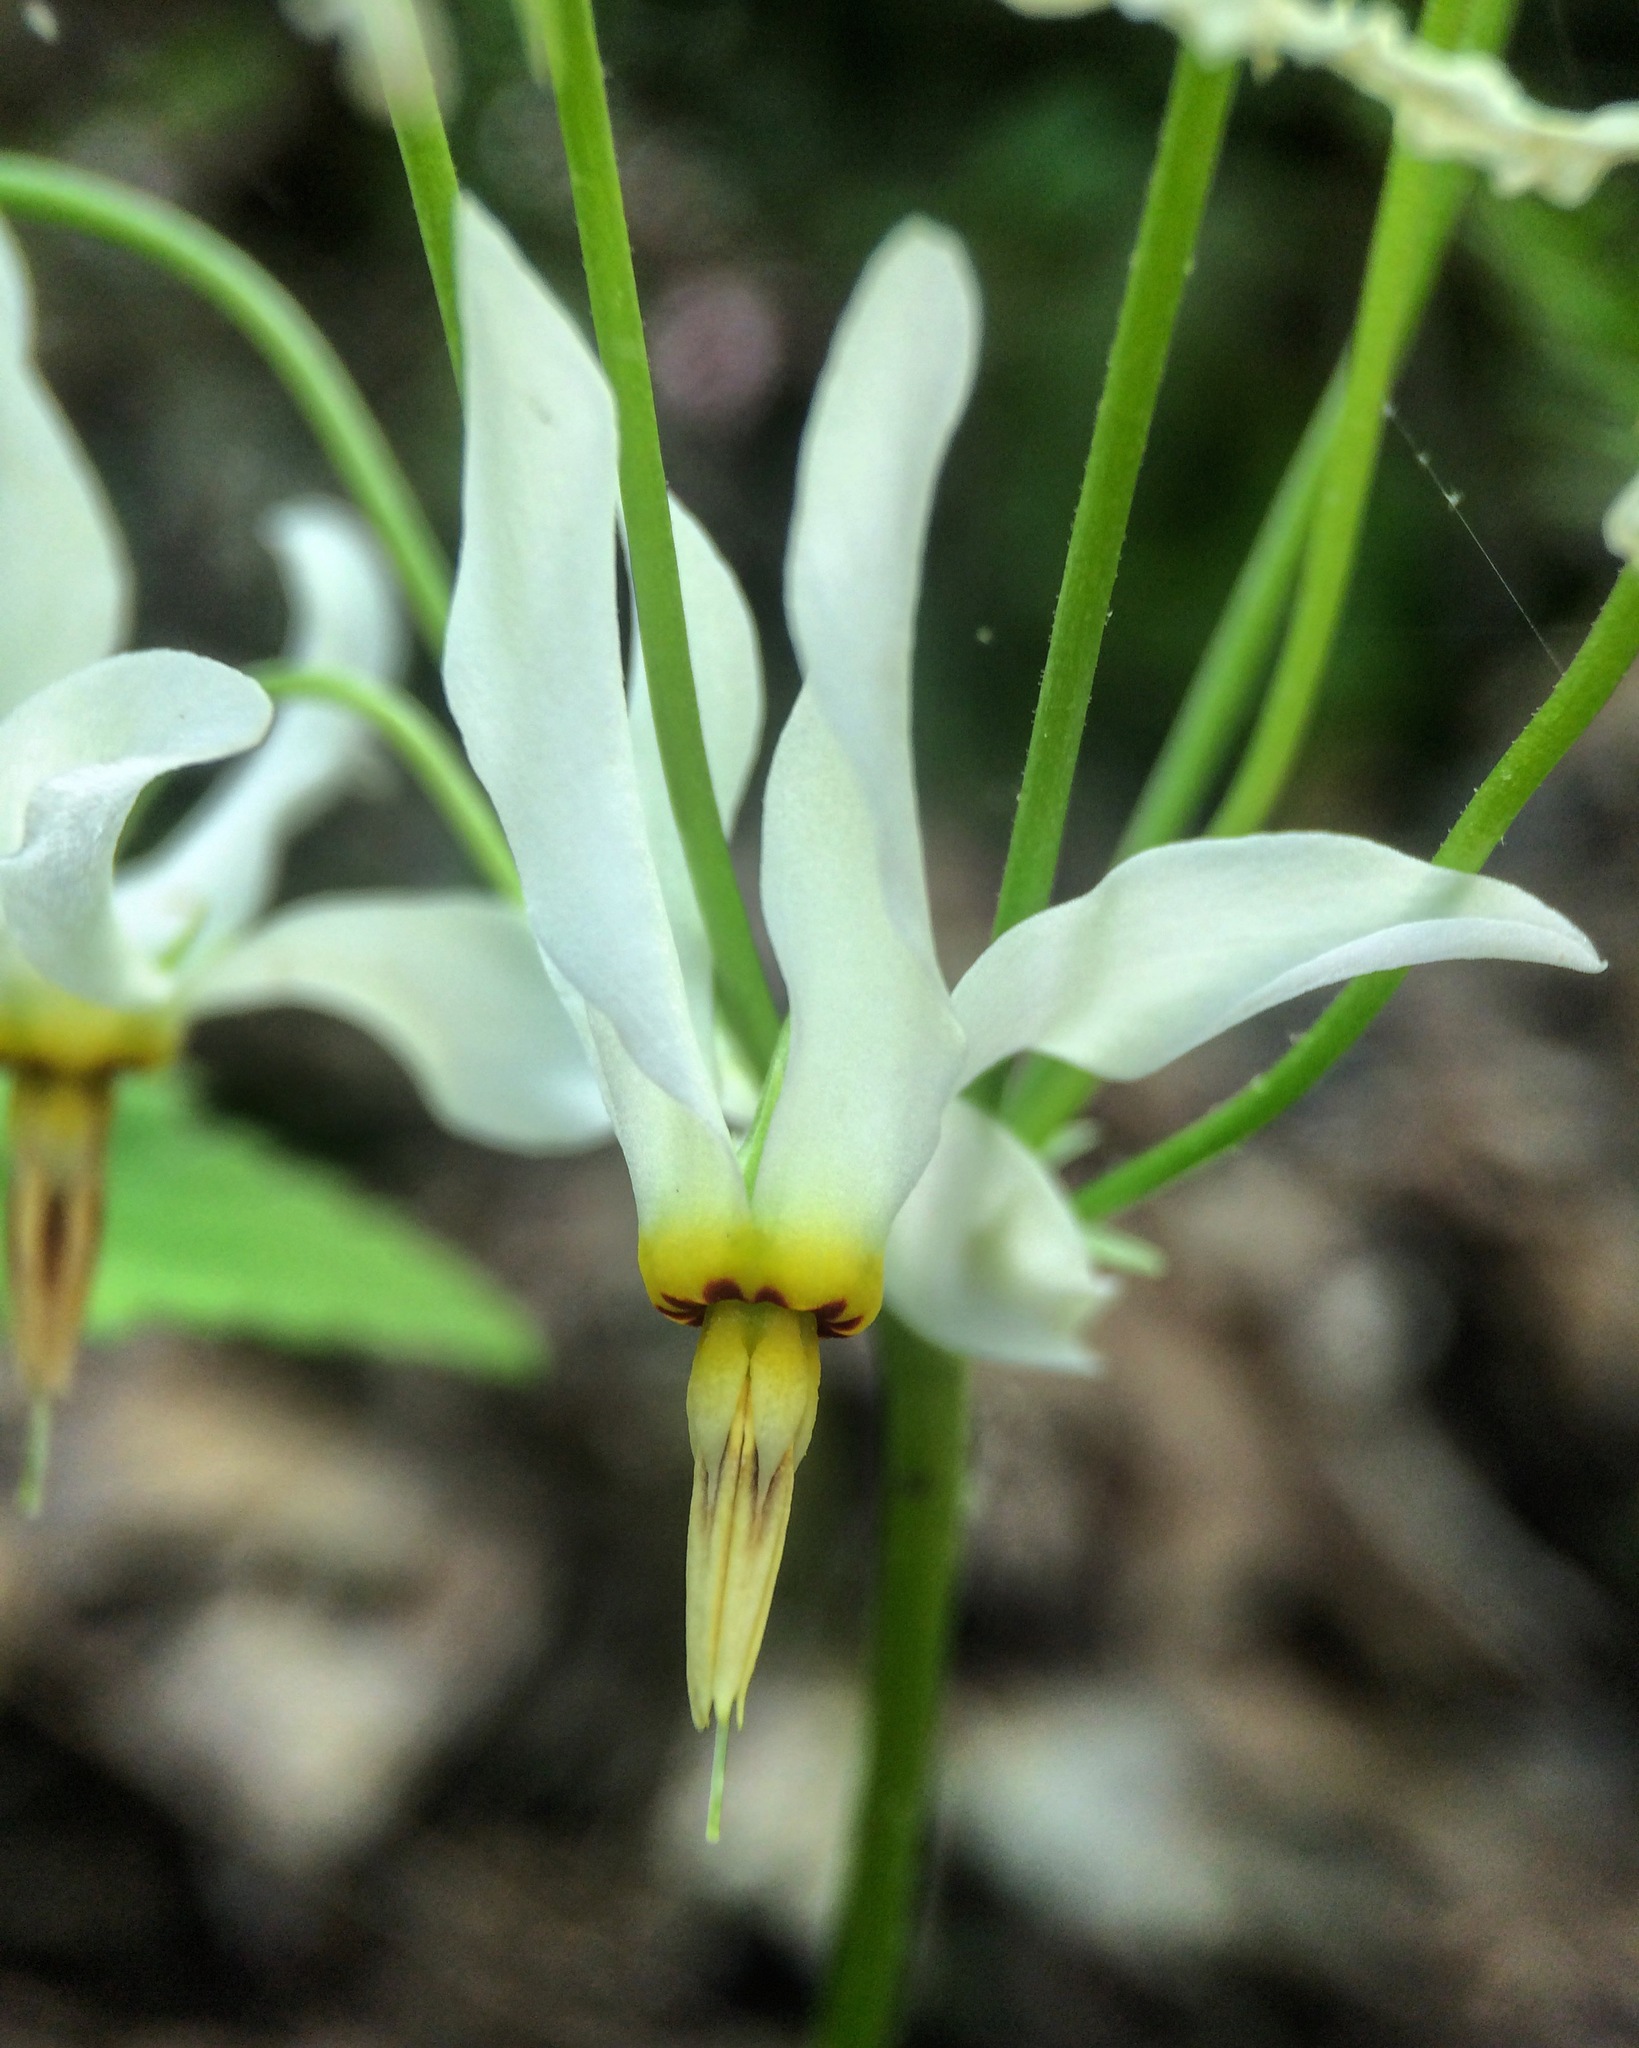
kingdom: Plantae
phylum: Tracheophyta
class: Magnoliopsida
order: Ericales
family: Primulaceae
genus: Dodecatheon
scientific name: Dodecatheon meadia
